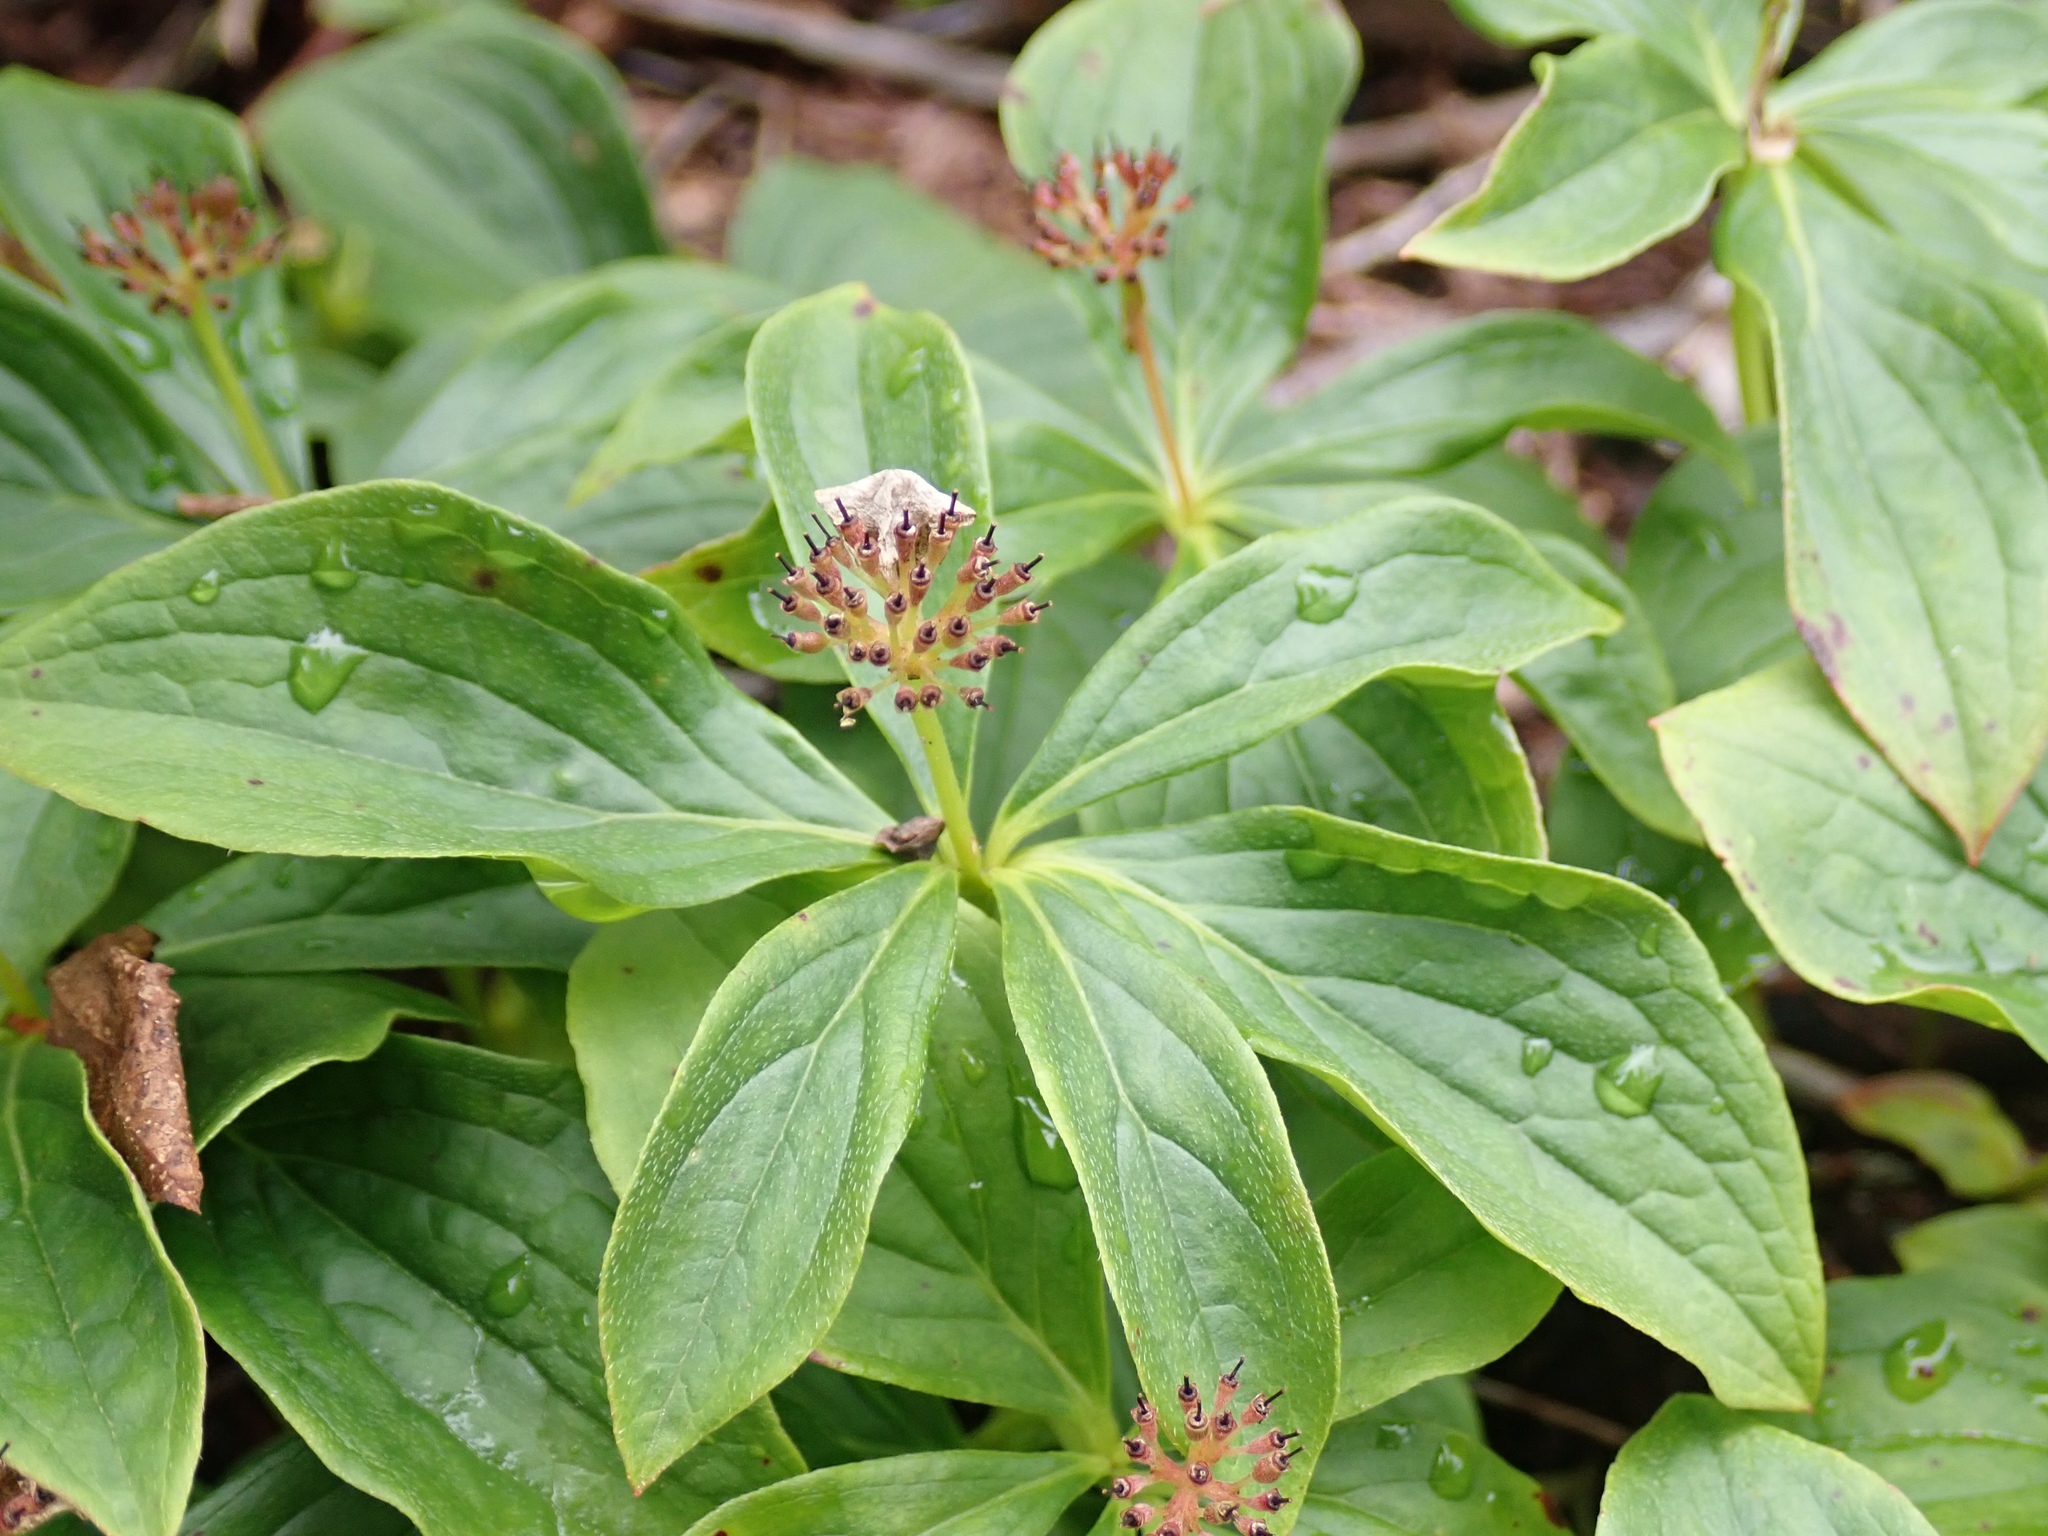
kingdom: Plantae
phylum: Tracheophyta
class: Magnoliopsida
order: Cornales
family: Cornaceae
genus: Cornus
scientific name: Cornus unalaschkensis
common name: Alaska bunchberry
